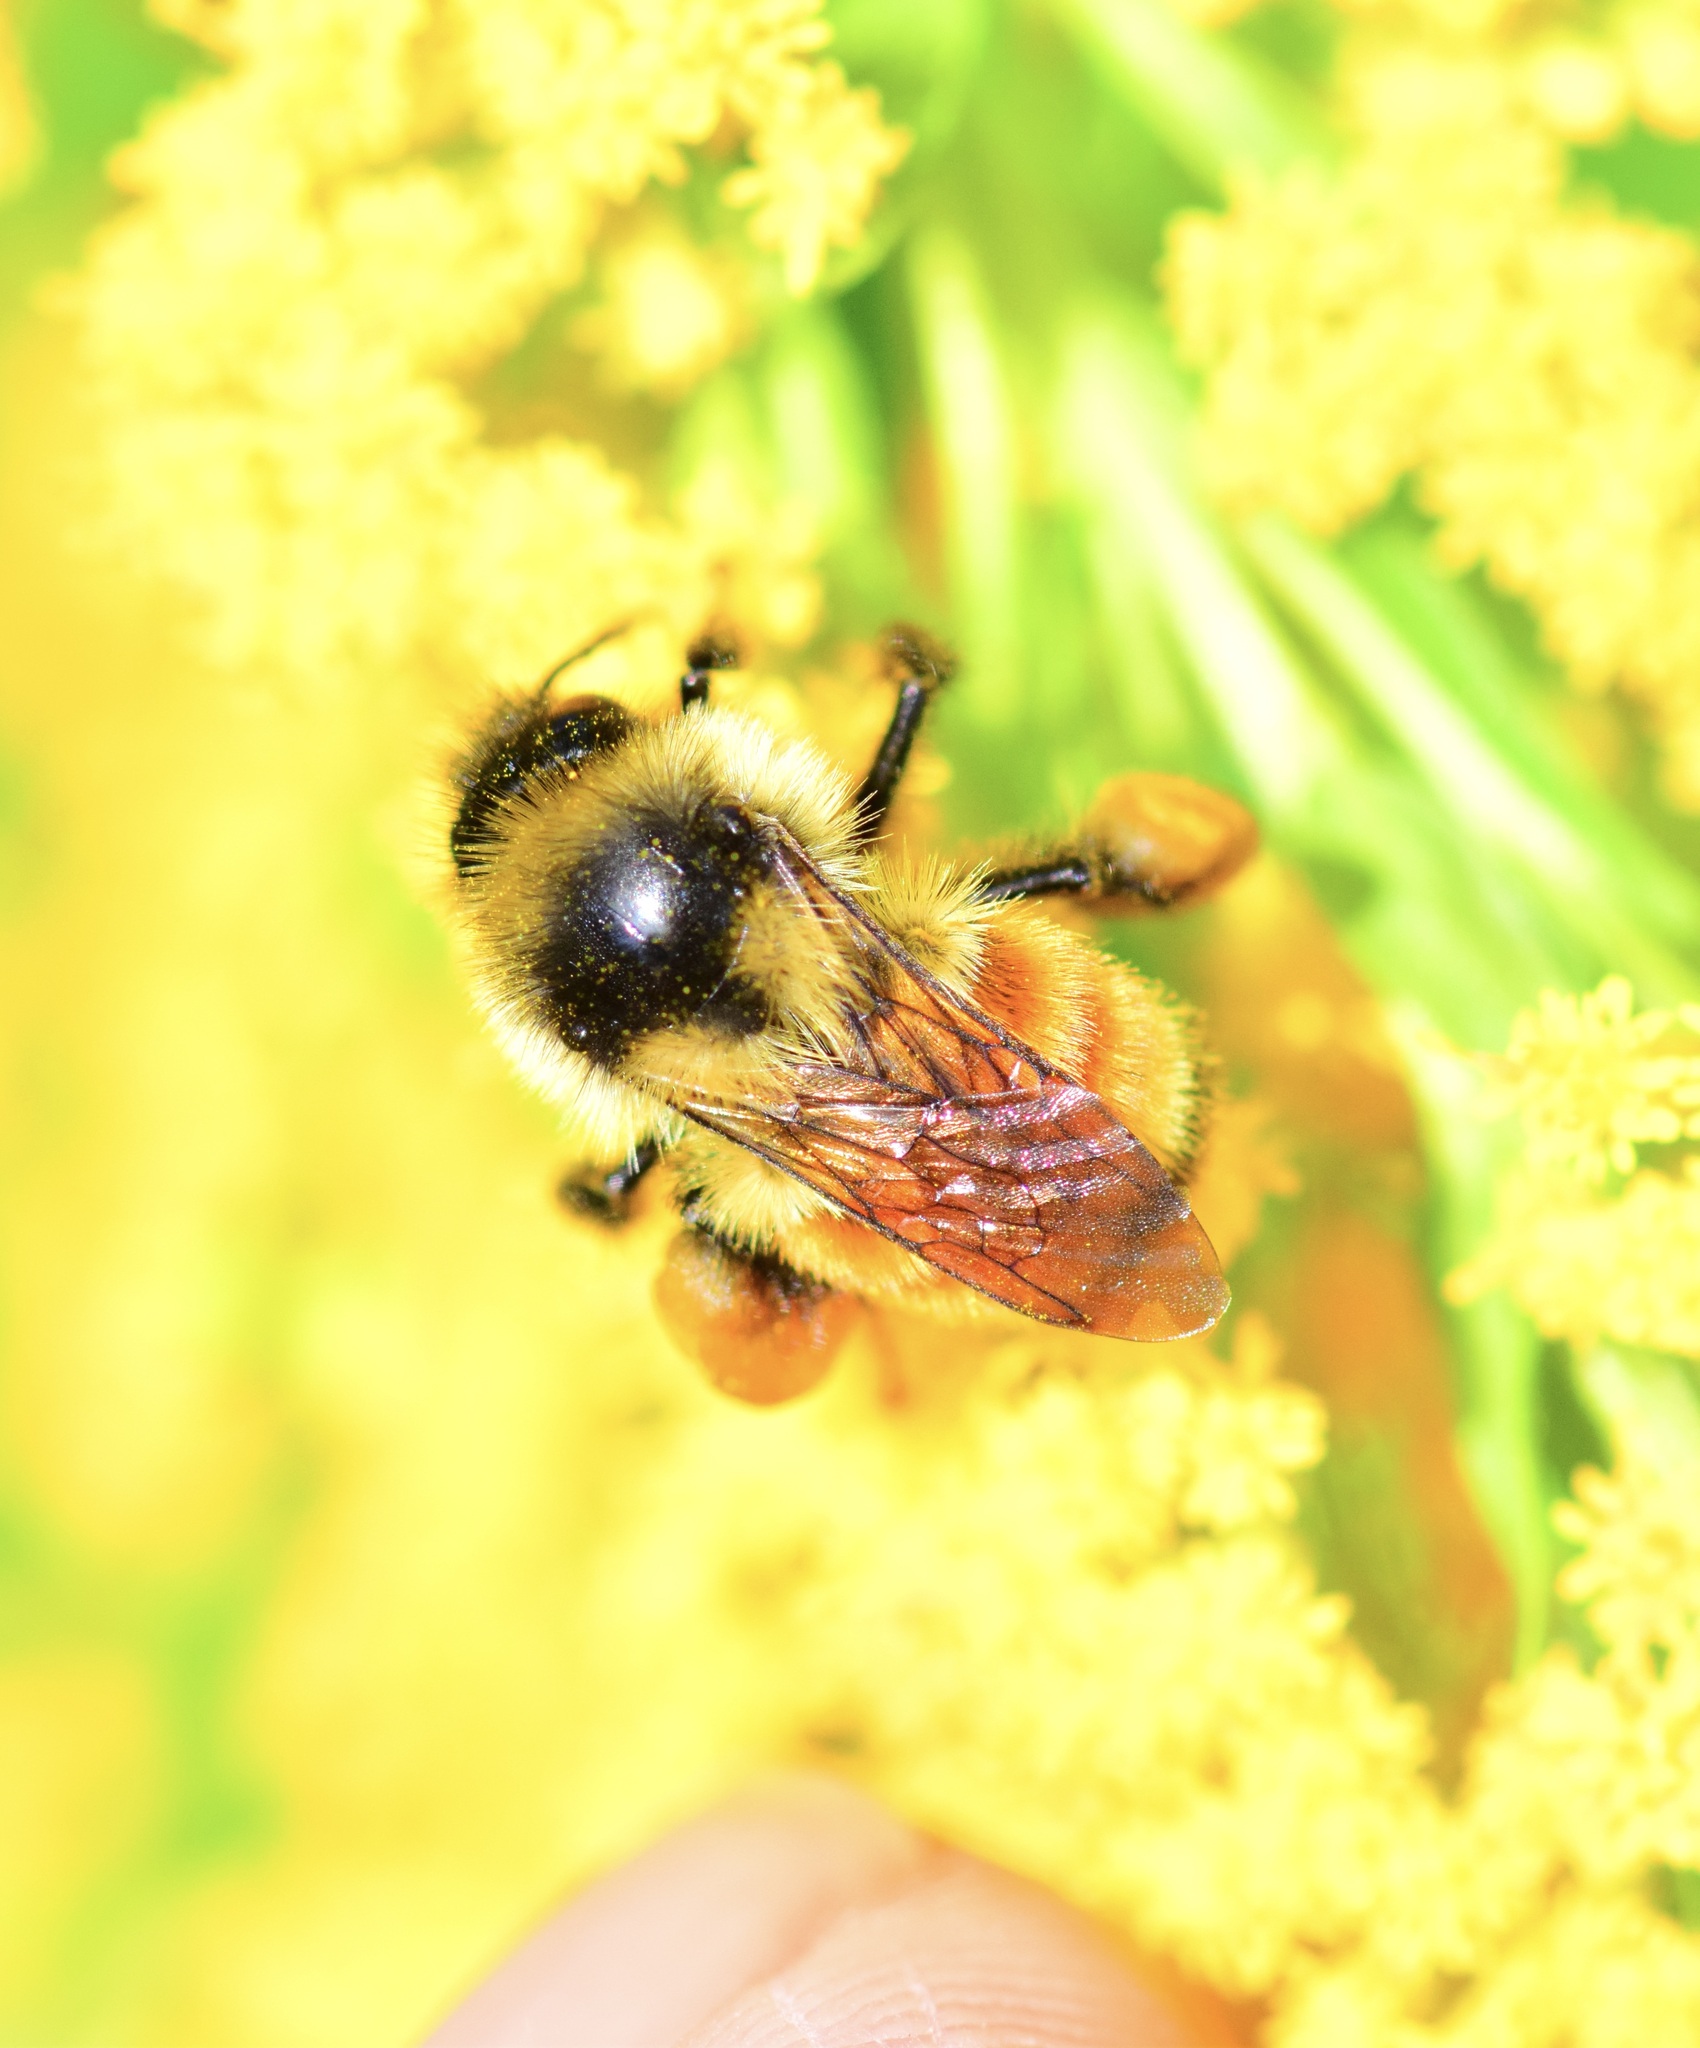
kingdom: Animalia
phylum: Arthropoda
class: Insecta
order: Hymenoptera
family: Apidae
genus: Bombus
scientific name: Bombus ternarius
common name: Tri-colored bumble bee
